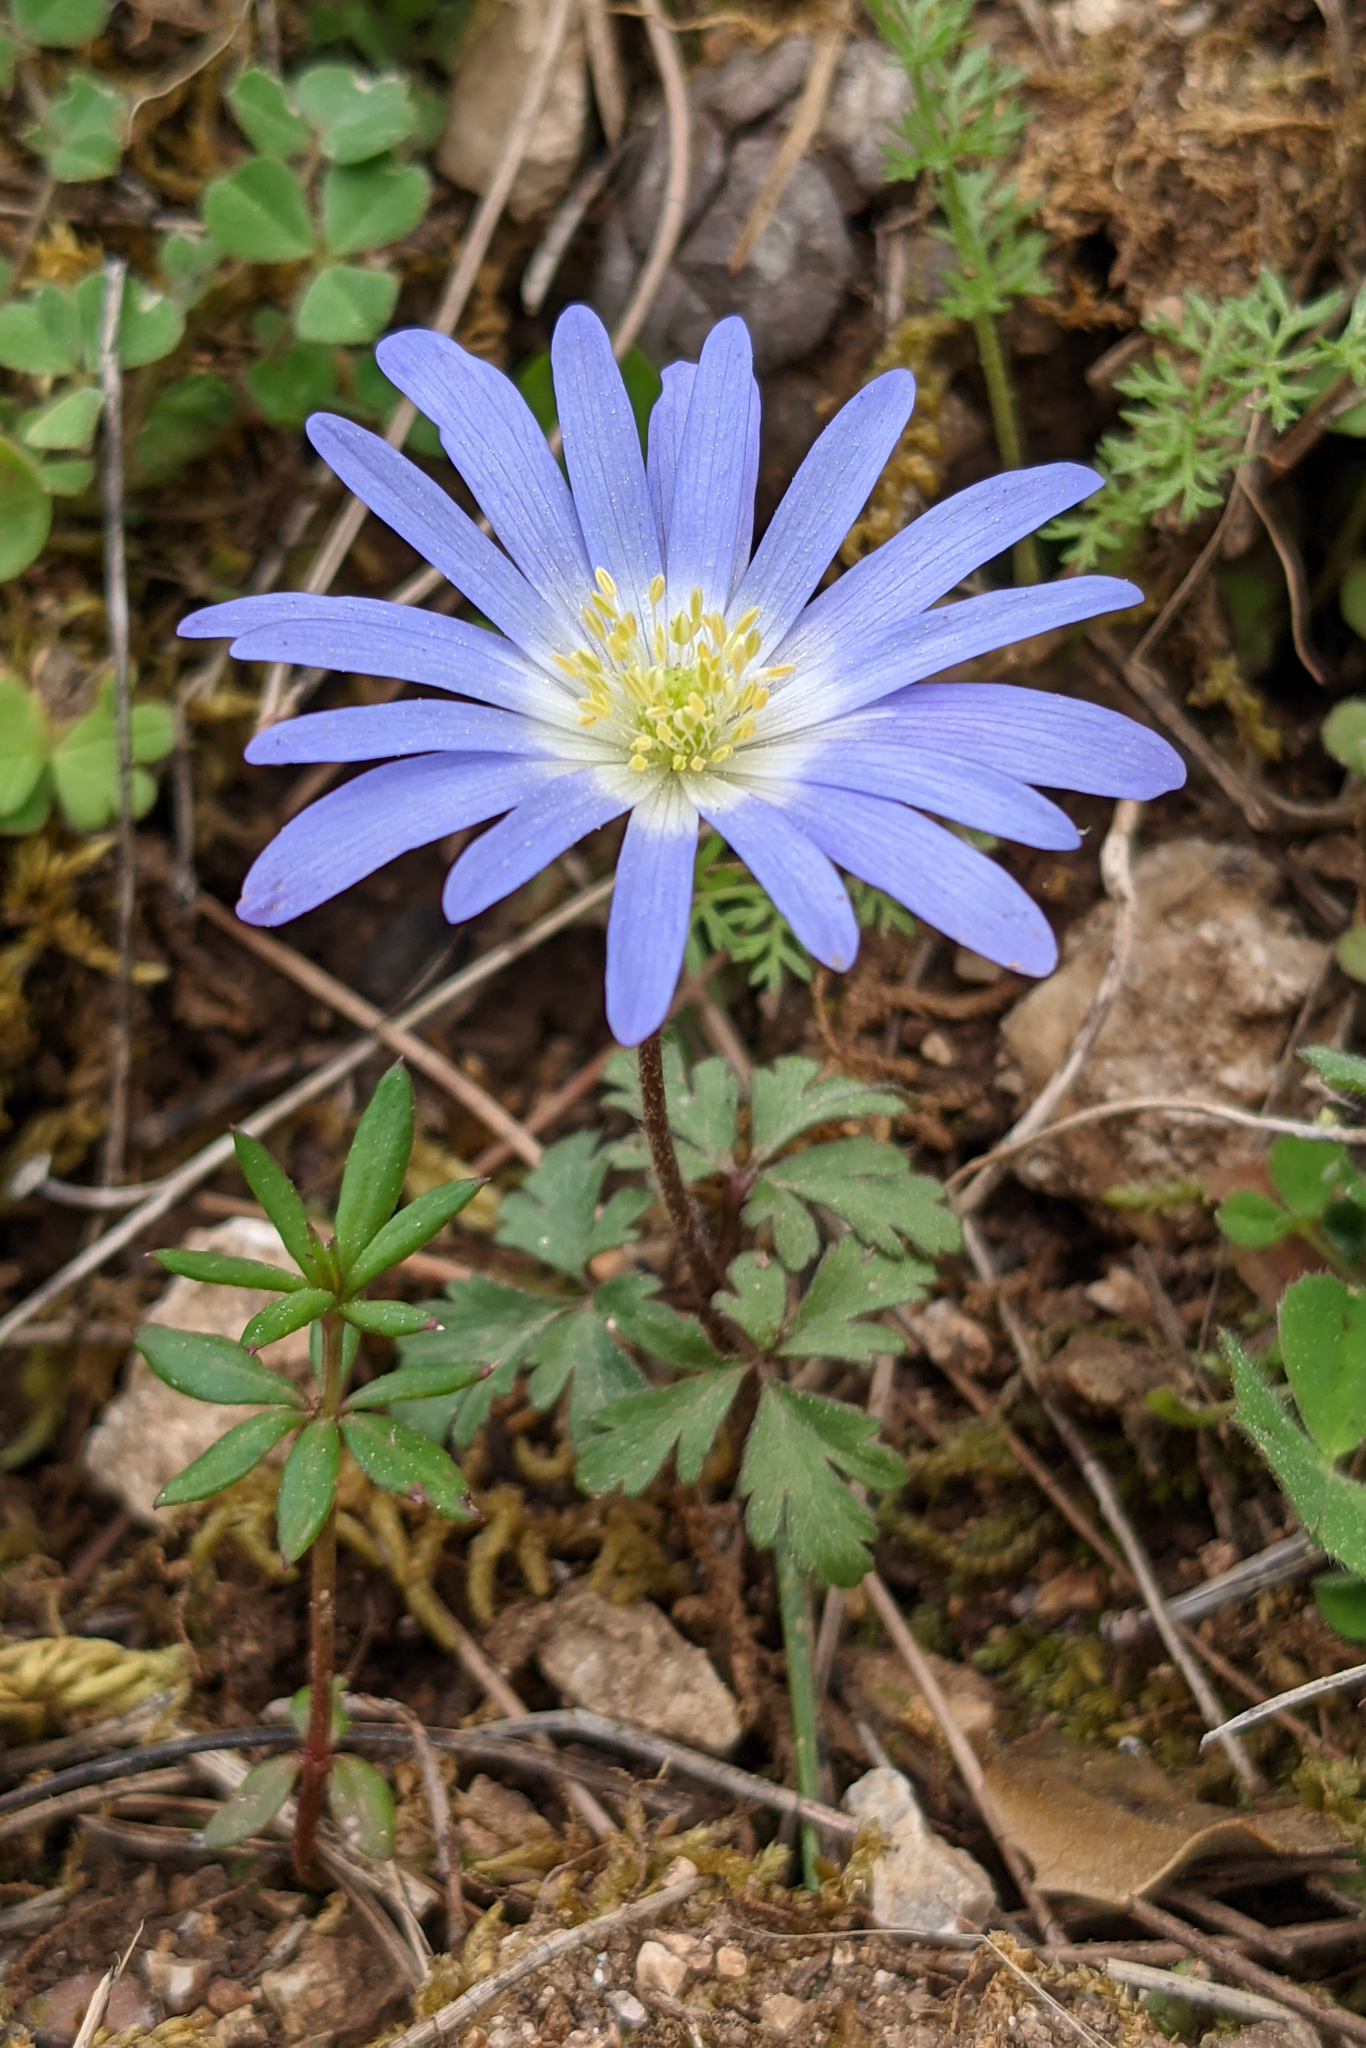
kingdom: Plantae
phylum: Tracheophyta
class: Magnoliopsida
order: Ranunculales
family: Ranunculaceae
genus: Anemone
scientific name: Anemone blanda
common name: Balkan anemone
